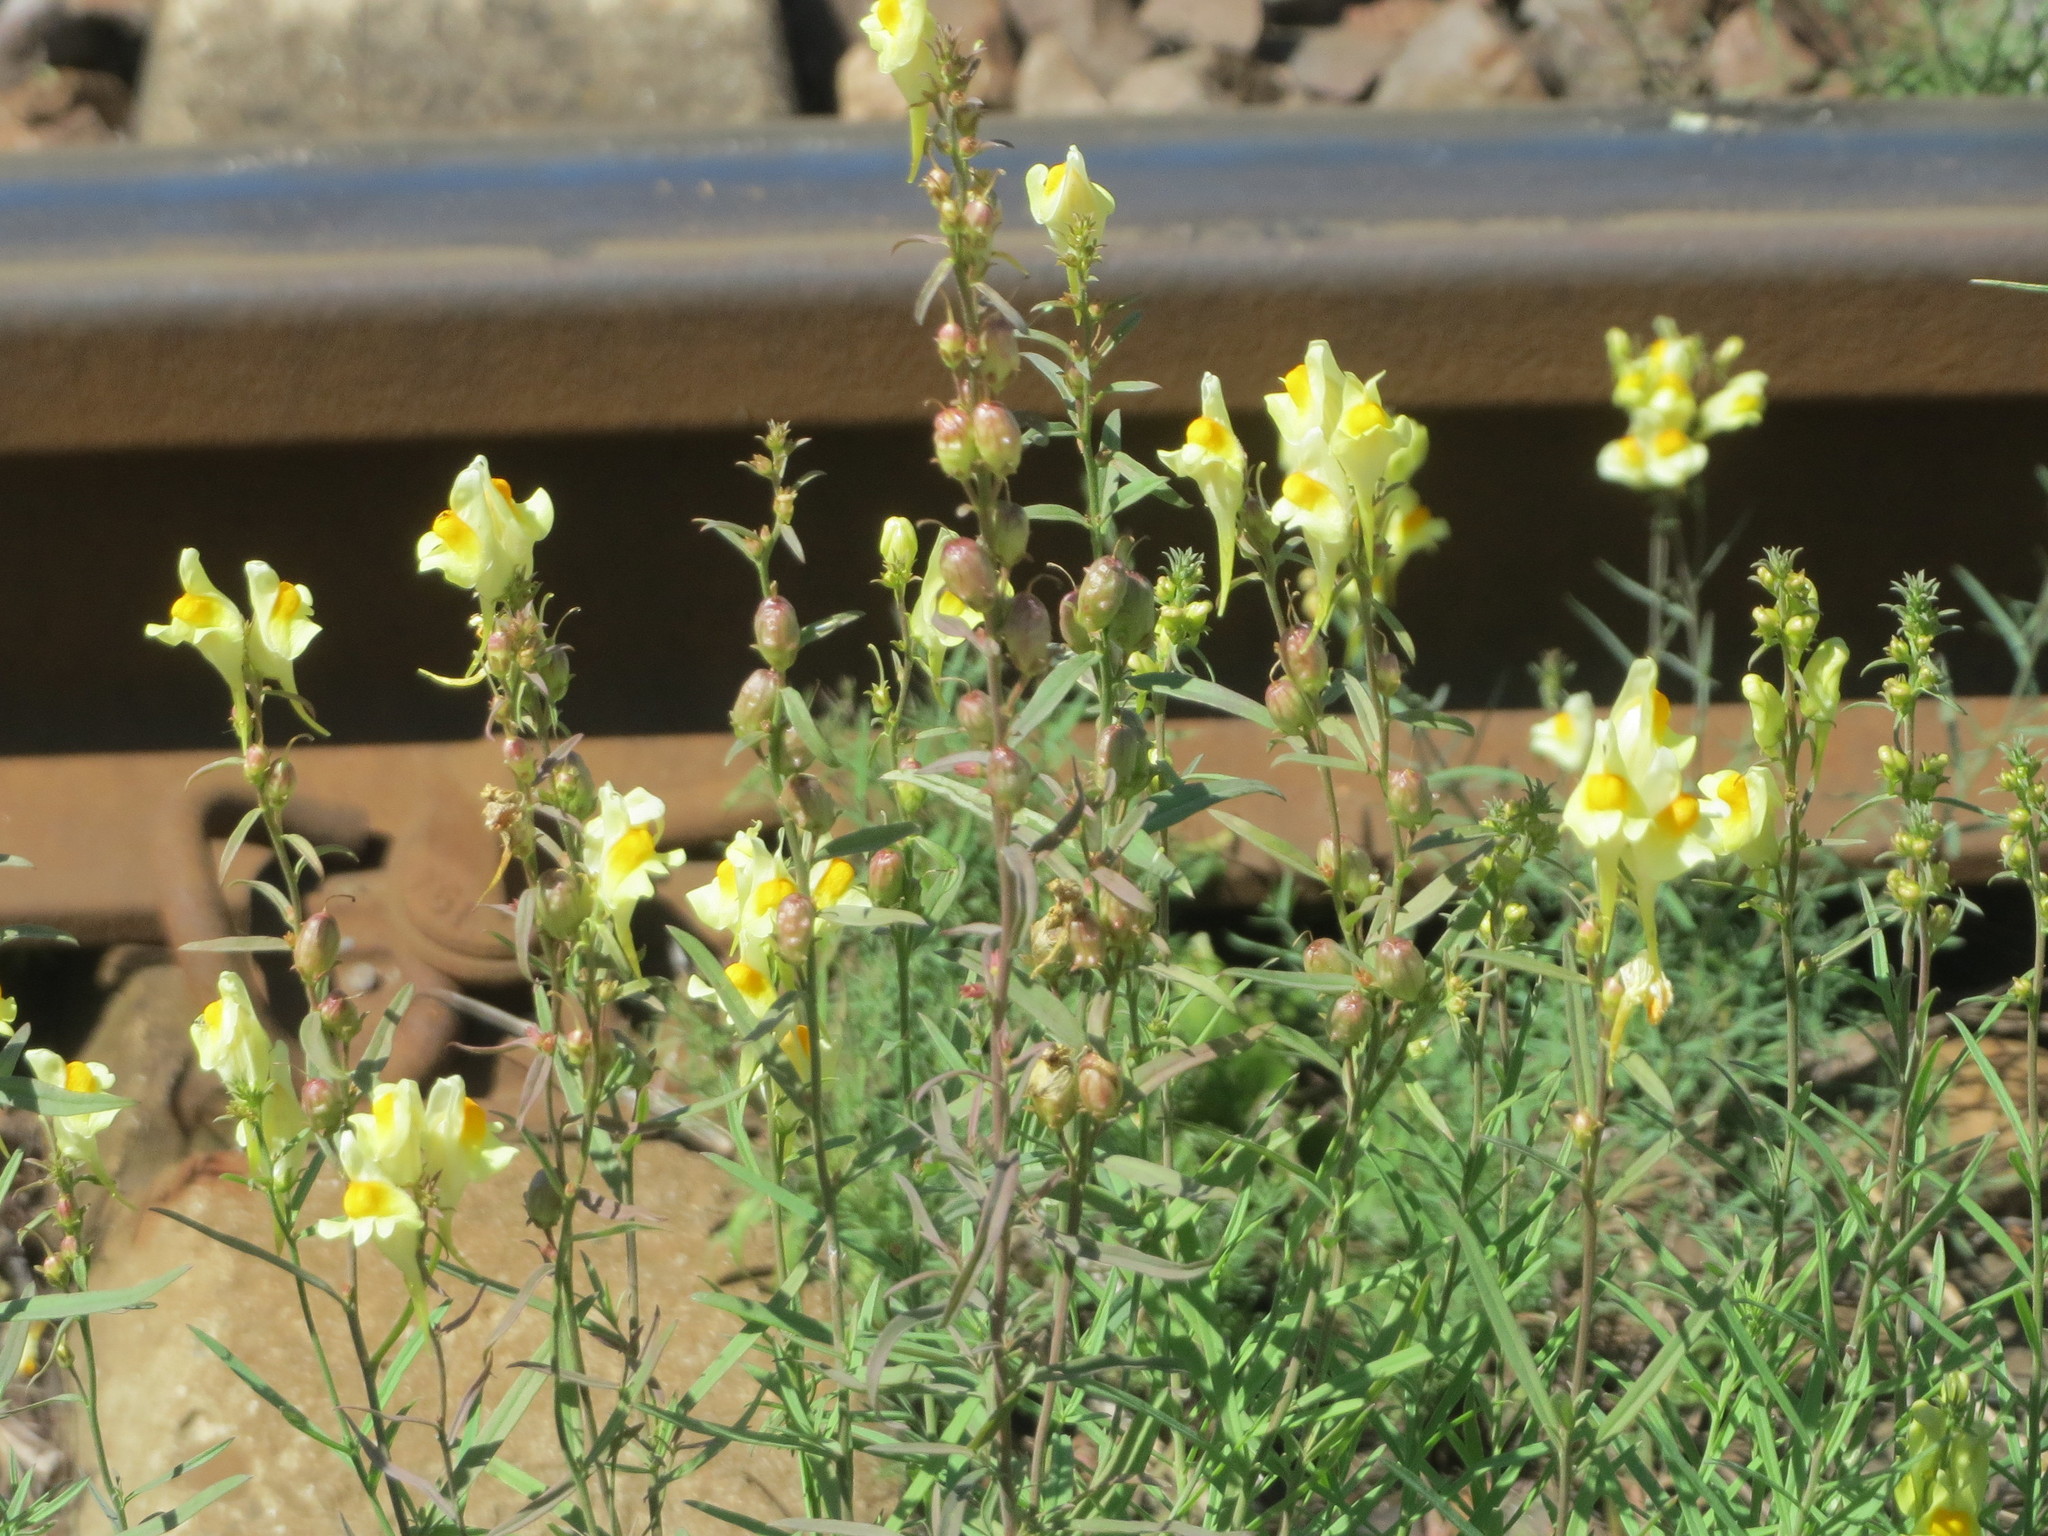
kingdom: Plantae
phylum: Tracheophyta
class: Magnoliopsida
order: Lamiales
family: Plantaginaceae
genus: Linaria
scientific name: Linaria vulgaris
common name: Butter and eggs
